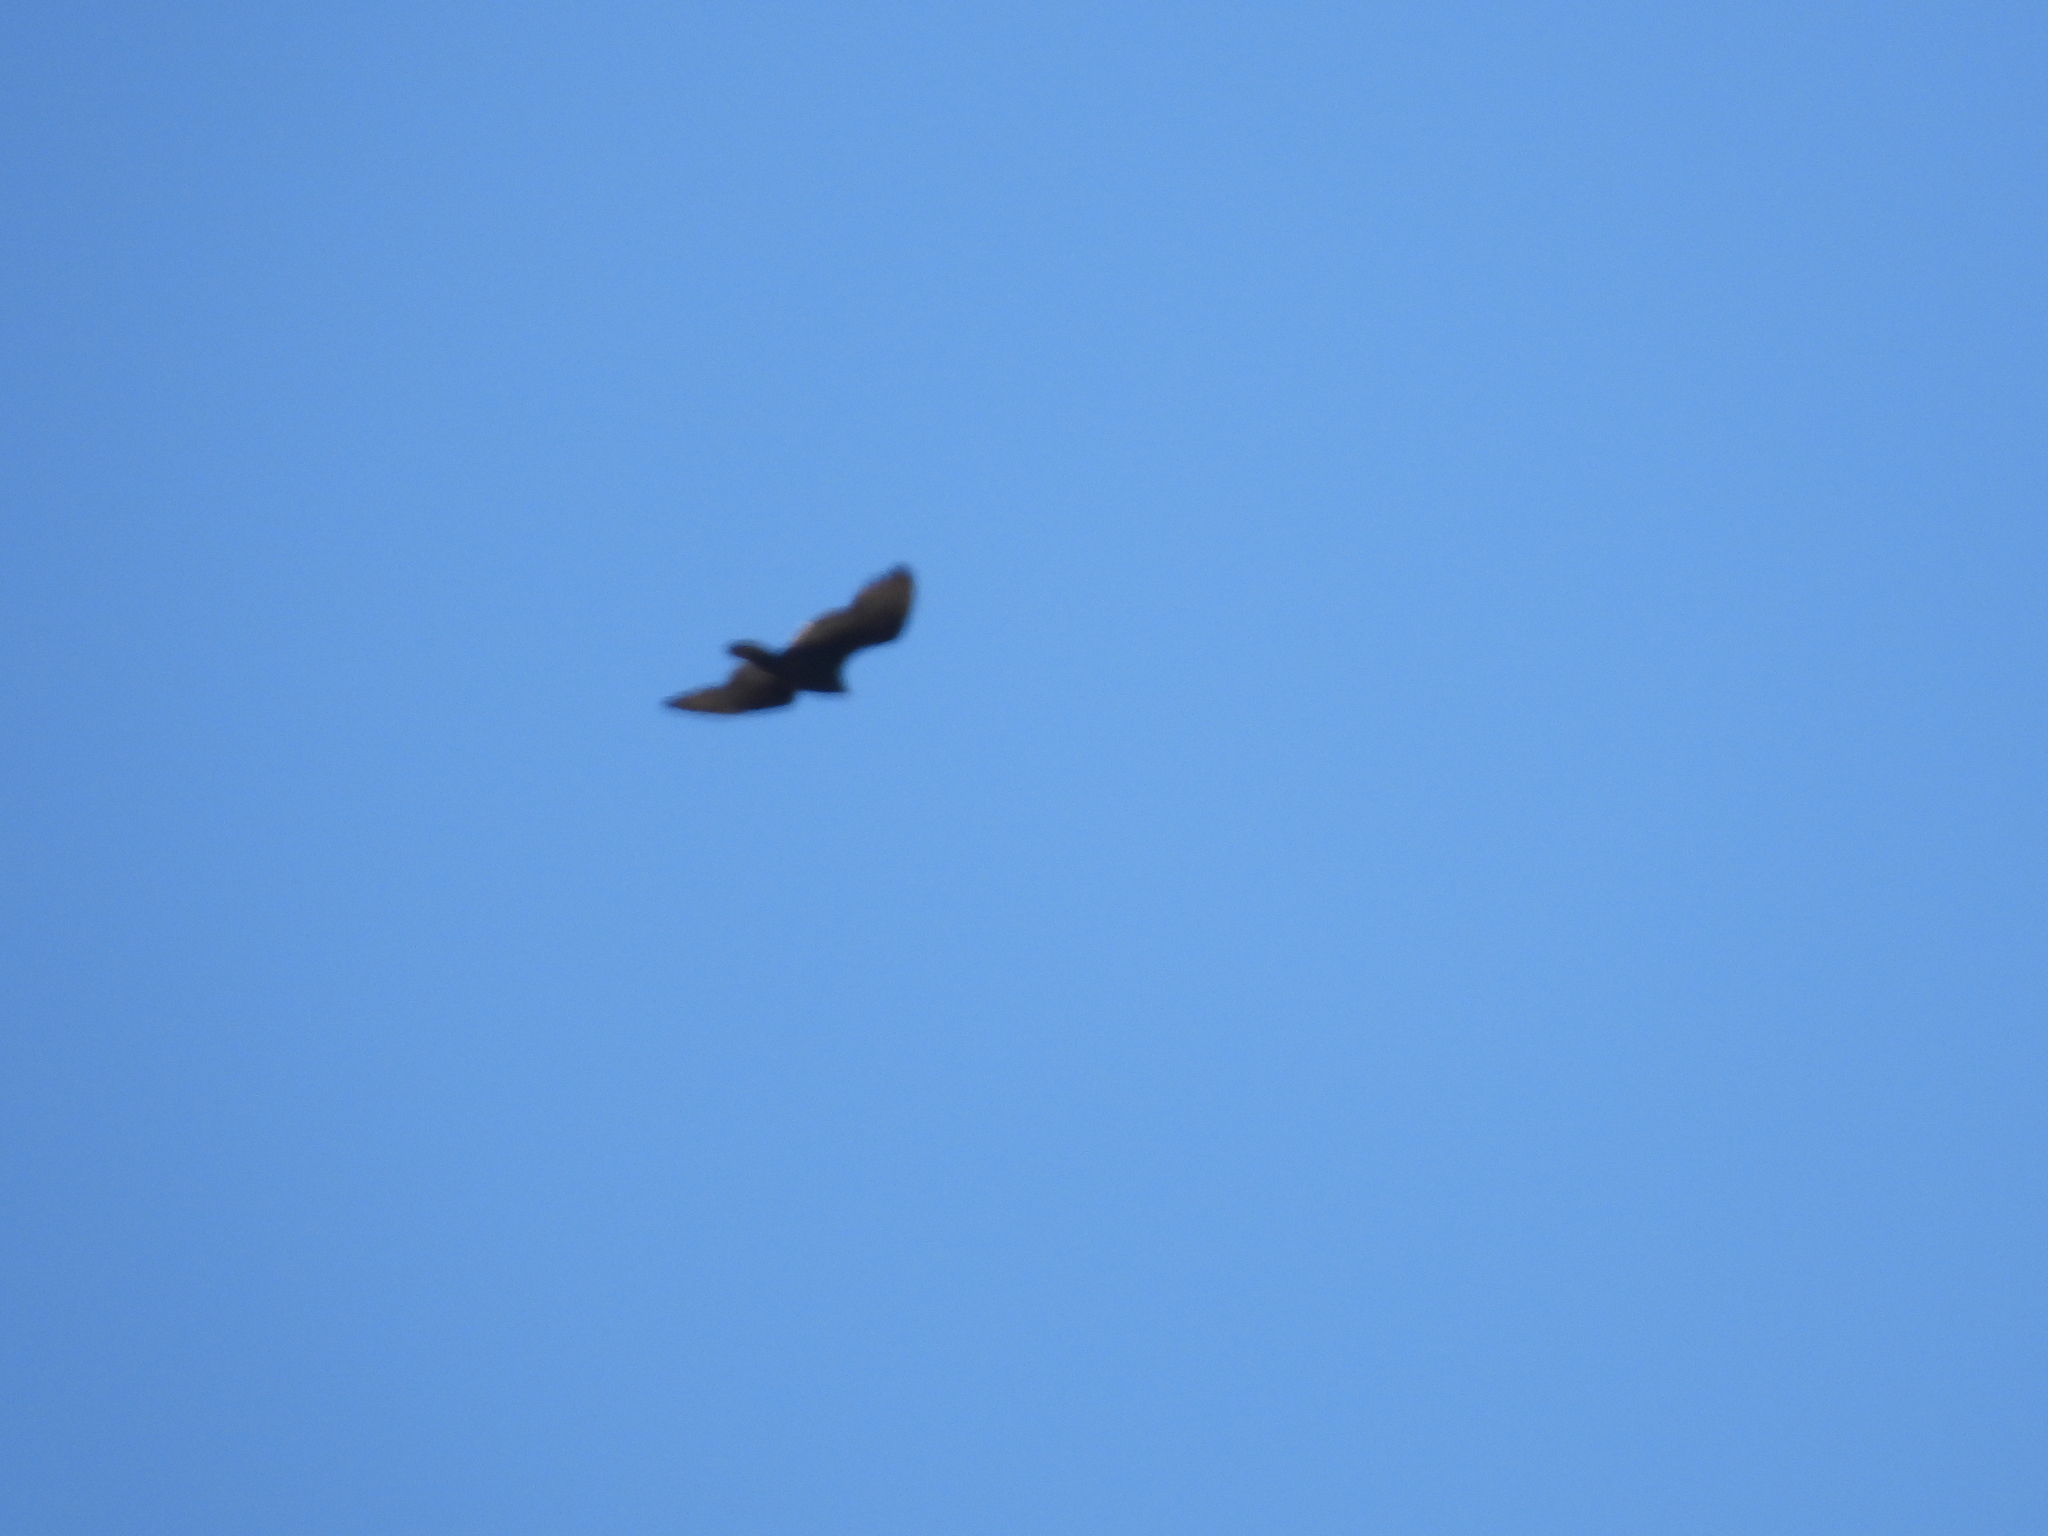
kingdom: Animalia
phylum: Chordata
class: Aves
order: Accipitriformes
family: Cathartidae
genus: Cathartes
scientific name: Cathartes aura
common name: Turkey vulture
